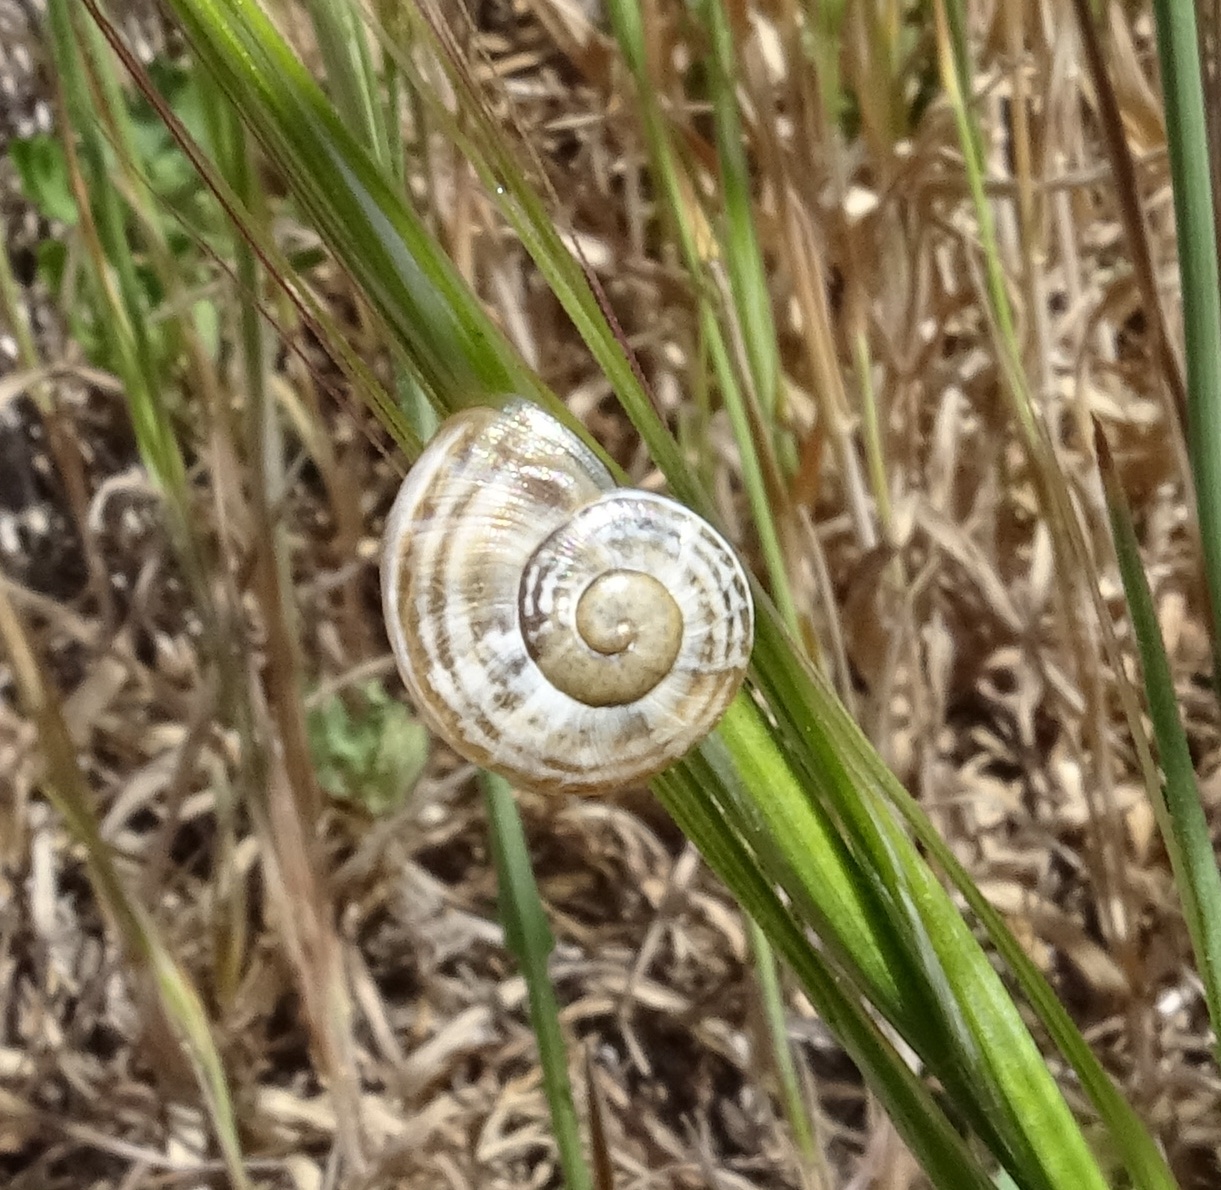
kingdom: Animalia
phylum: Mollusca
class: Gastropoda
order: Stylommatophora
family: Helicidae
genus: Otala
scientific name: Otala lactea
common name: Milk snail
